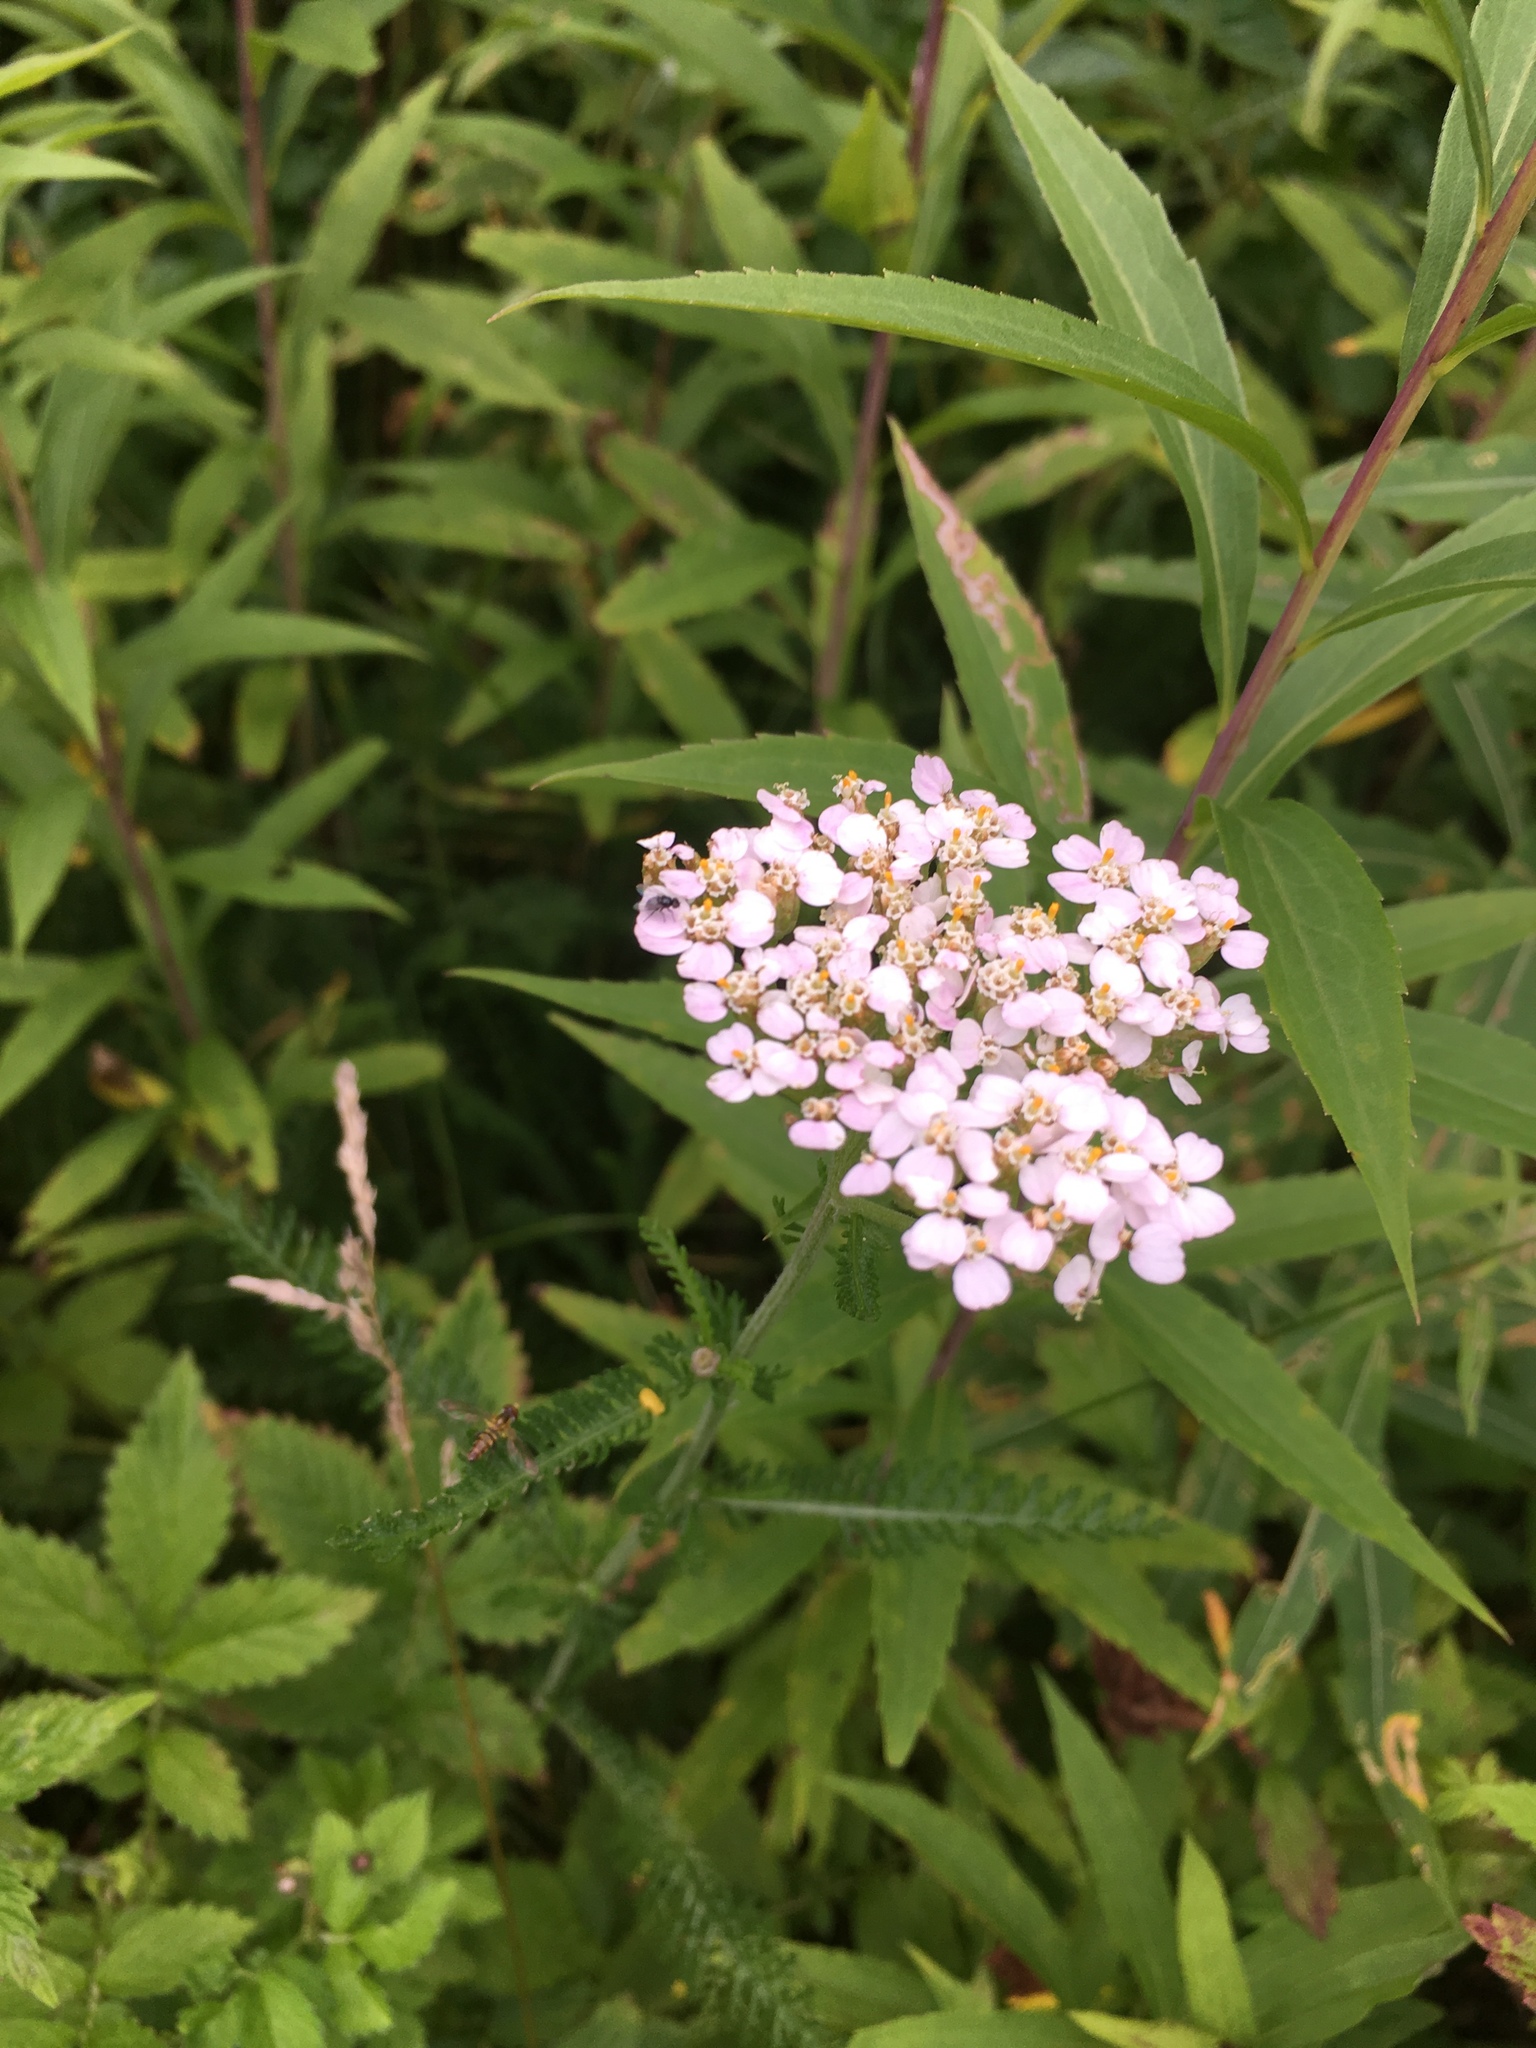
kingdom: Plantae
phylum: Tracheophyta
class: Magnoliopsida
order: Asterales
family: Asteraceae
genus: Achillea
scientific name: Achillea millefolium
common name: Yarrow
